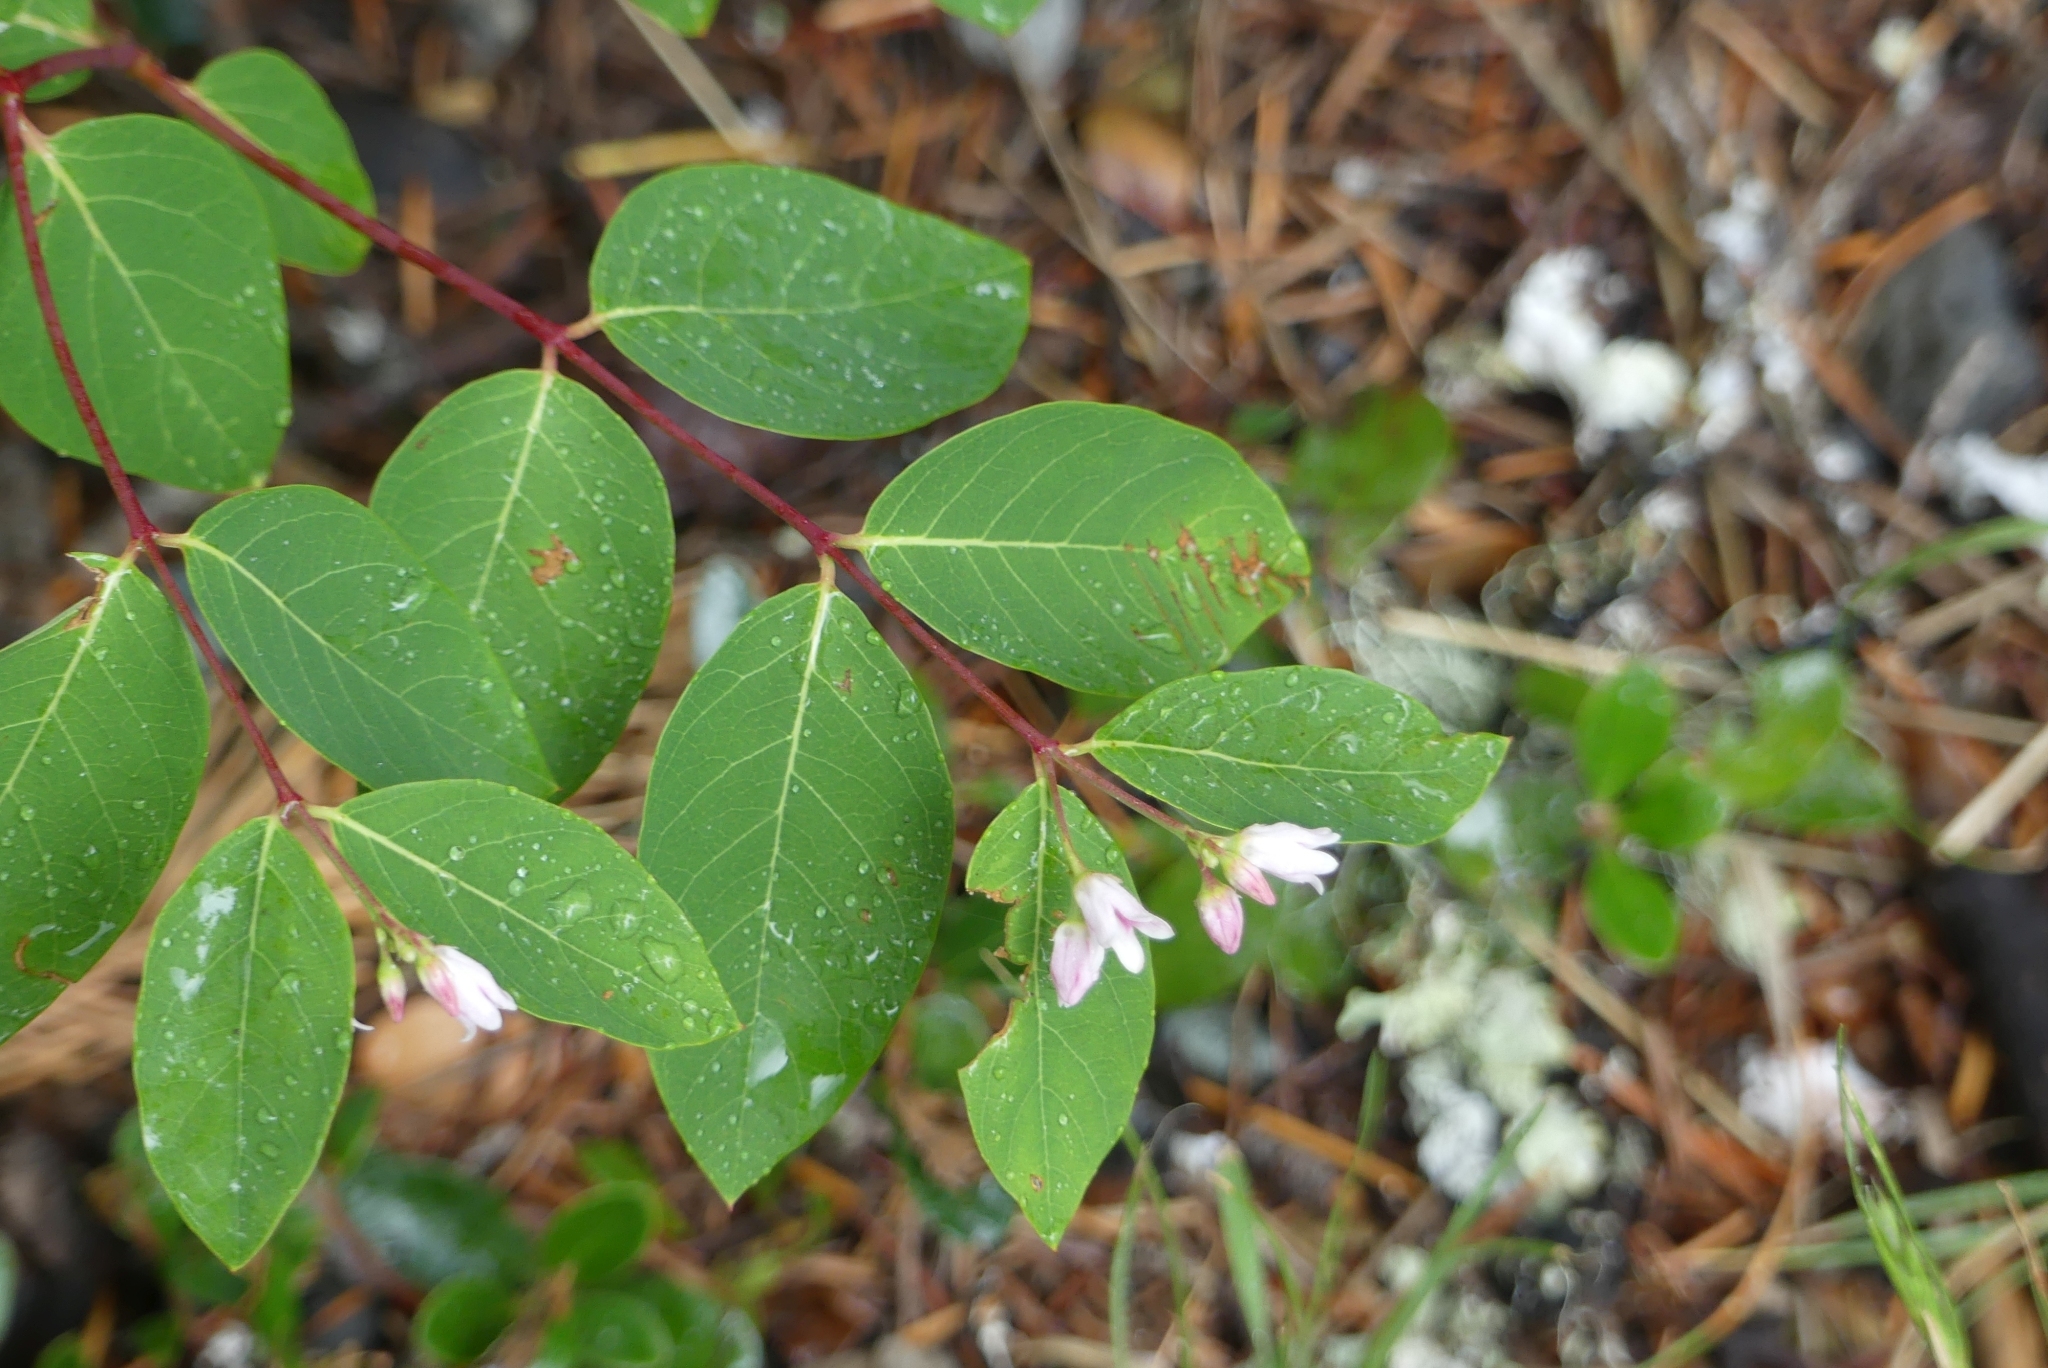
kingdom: Plantae
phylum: Tracheophyta
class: Magnoliopsida
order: Gentianales
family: Apocynaceae
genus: Apocynum
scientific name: Apocynum androsaemifolium
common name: Spreading dogbane
